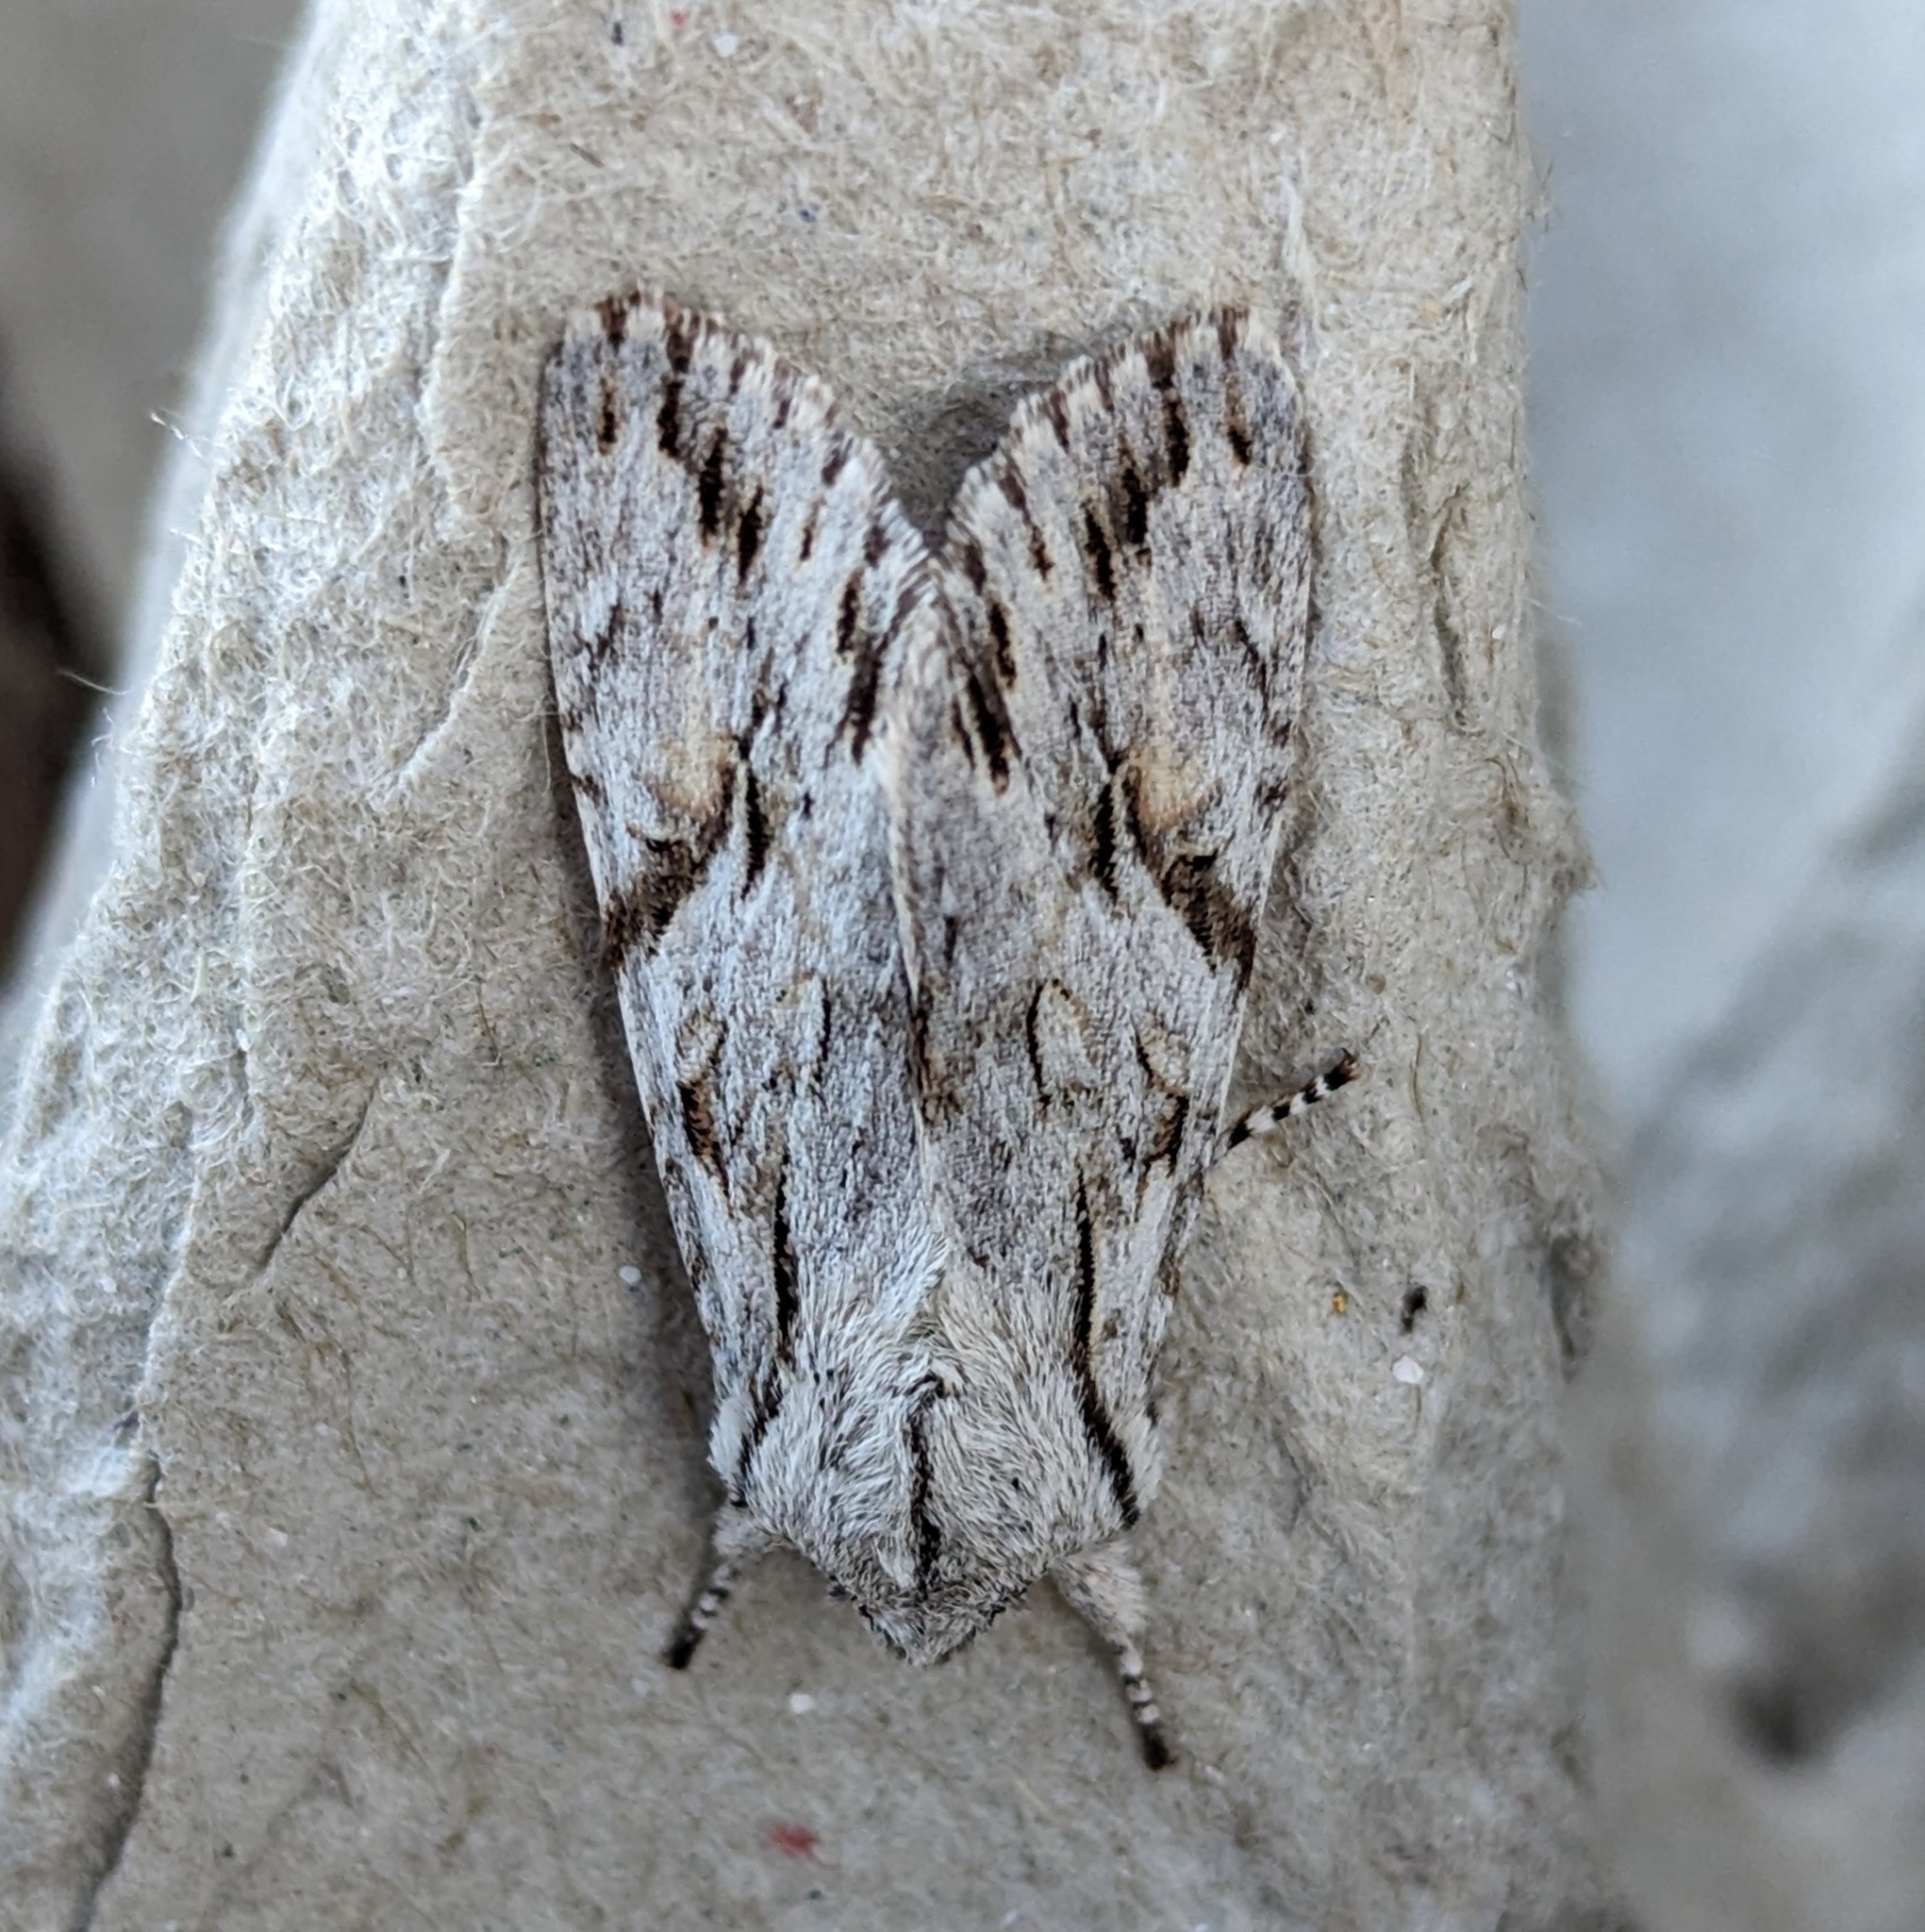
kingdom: Animalia
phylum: Arthropoda
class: Insecta
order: Lepidoptera
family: Noctuidae
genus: Egira
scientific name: Egira crucialis
